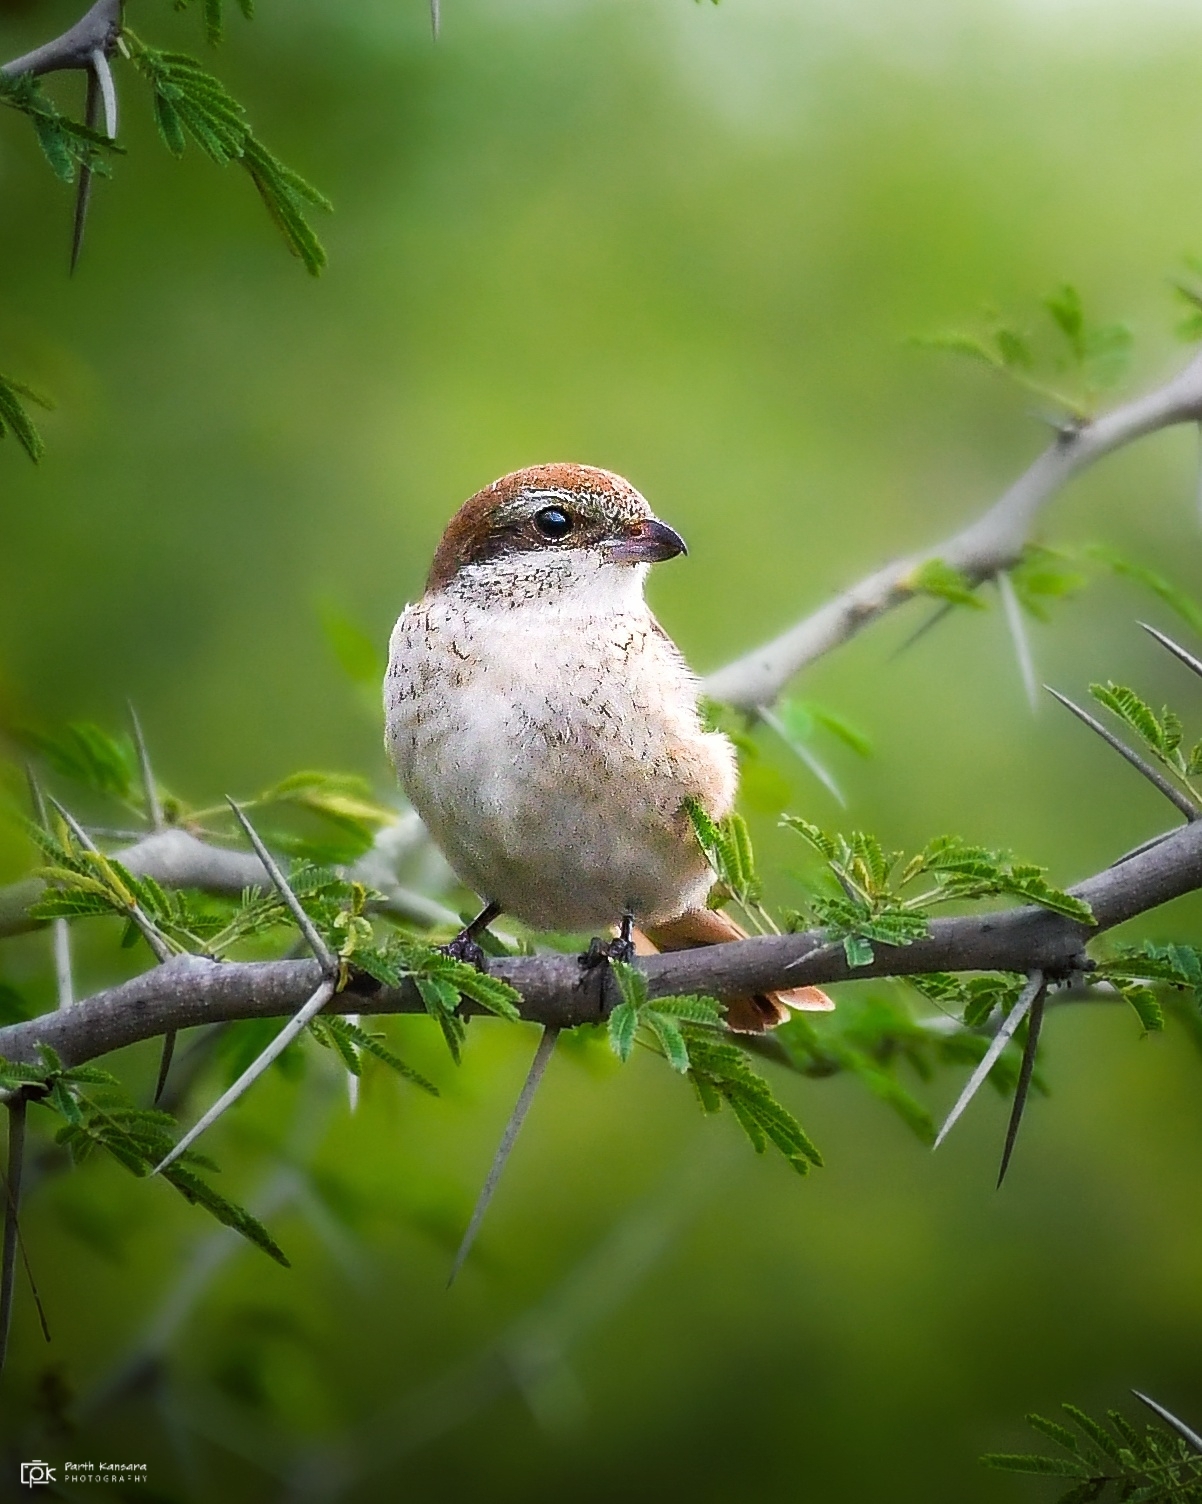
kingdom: Animalia
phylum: Chordata
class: Aves
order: Passeriformes
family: Laniidae
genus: Lanius
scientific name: Lanius cristatus
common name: Brown shrike
